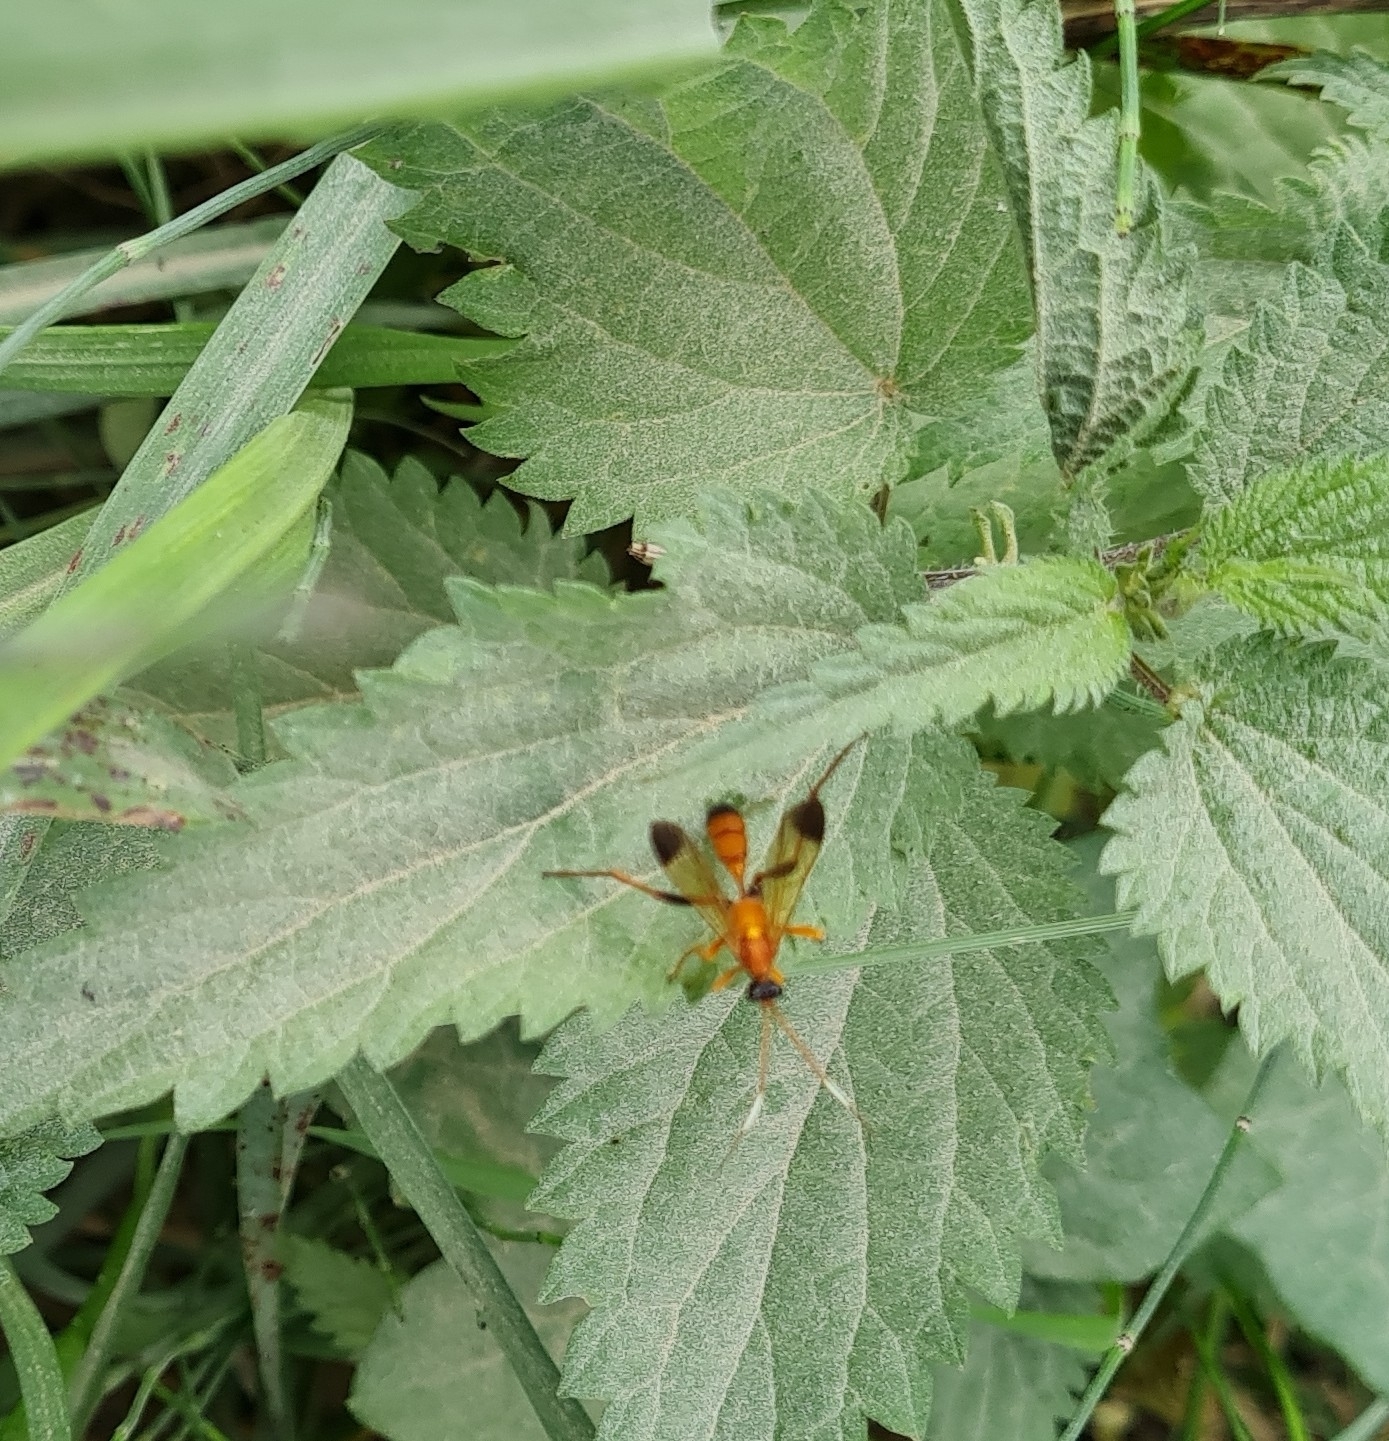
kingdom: Animalia
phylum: Arthropoda
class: Insecta
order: Hymenoptera
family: Ichneumonidae
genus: Ctenochares
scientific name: Ctenochares bicolorus
